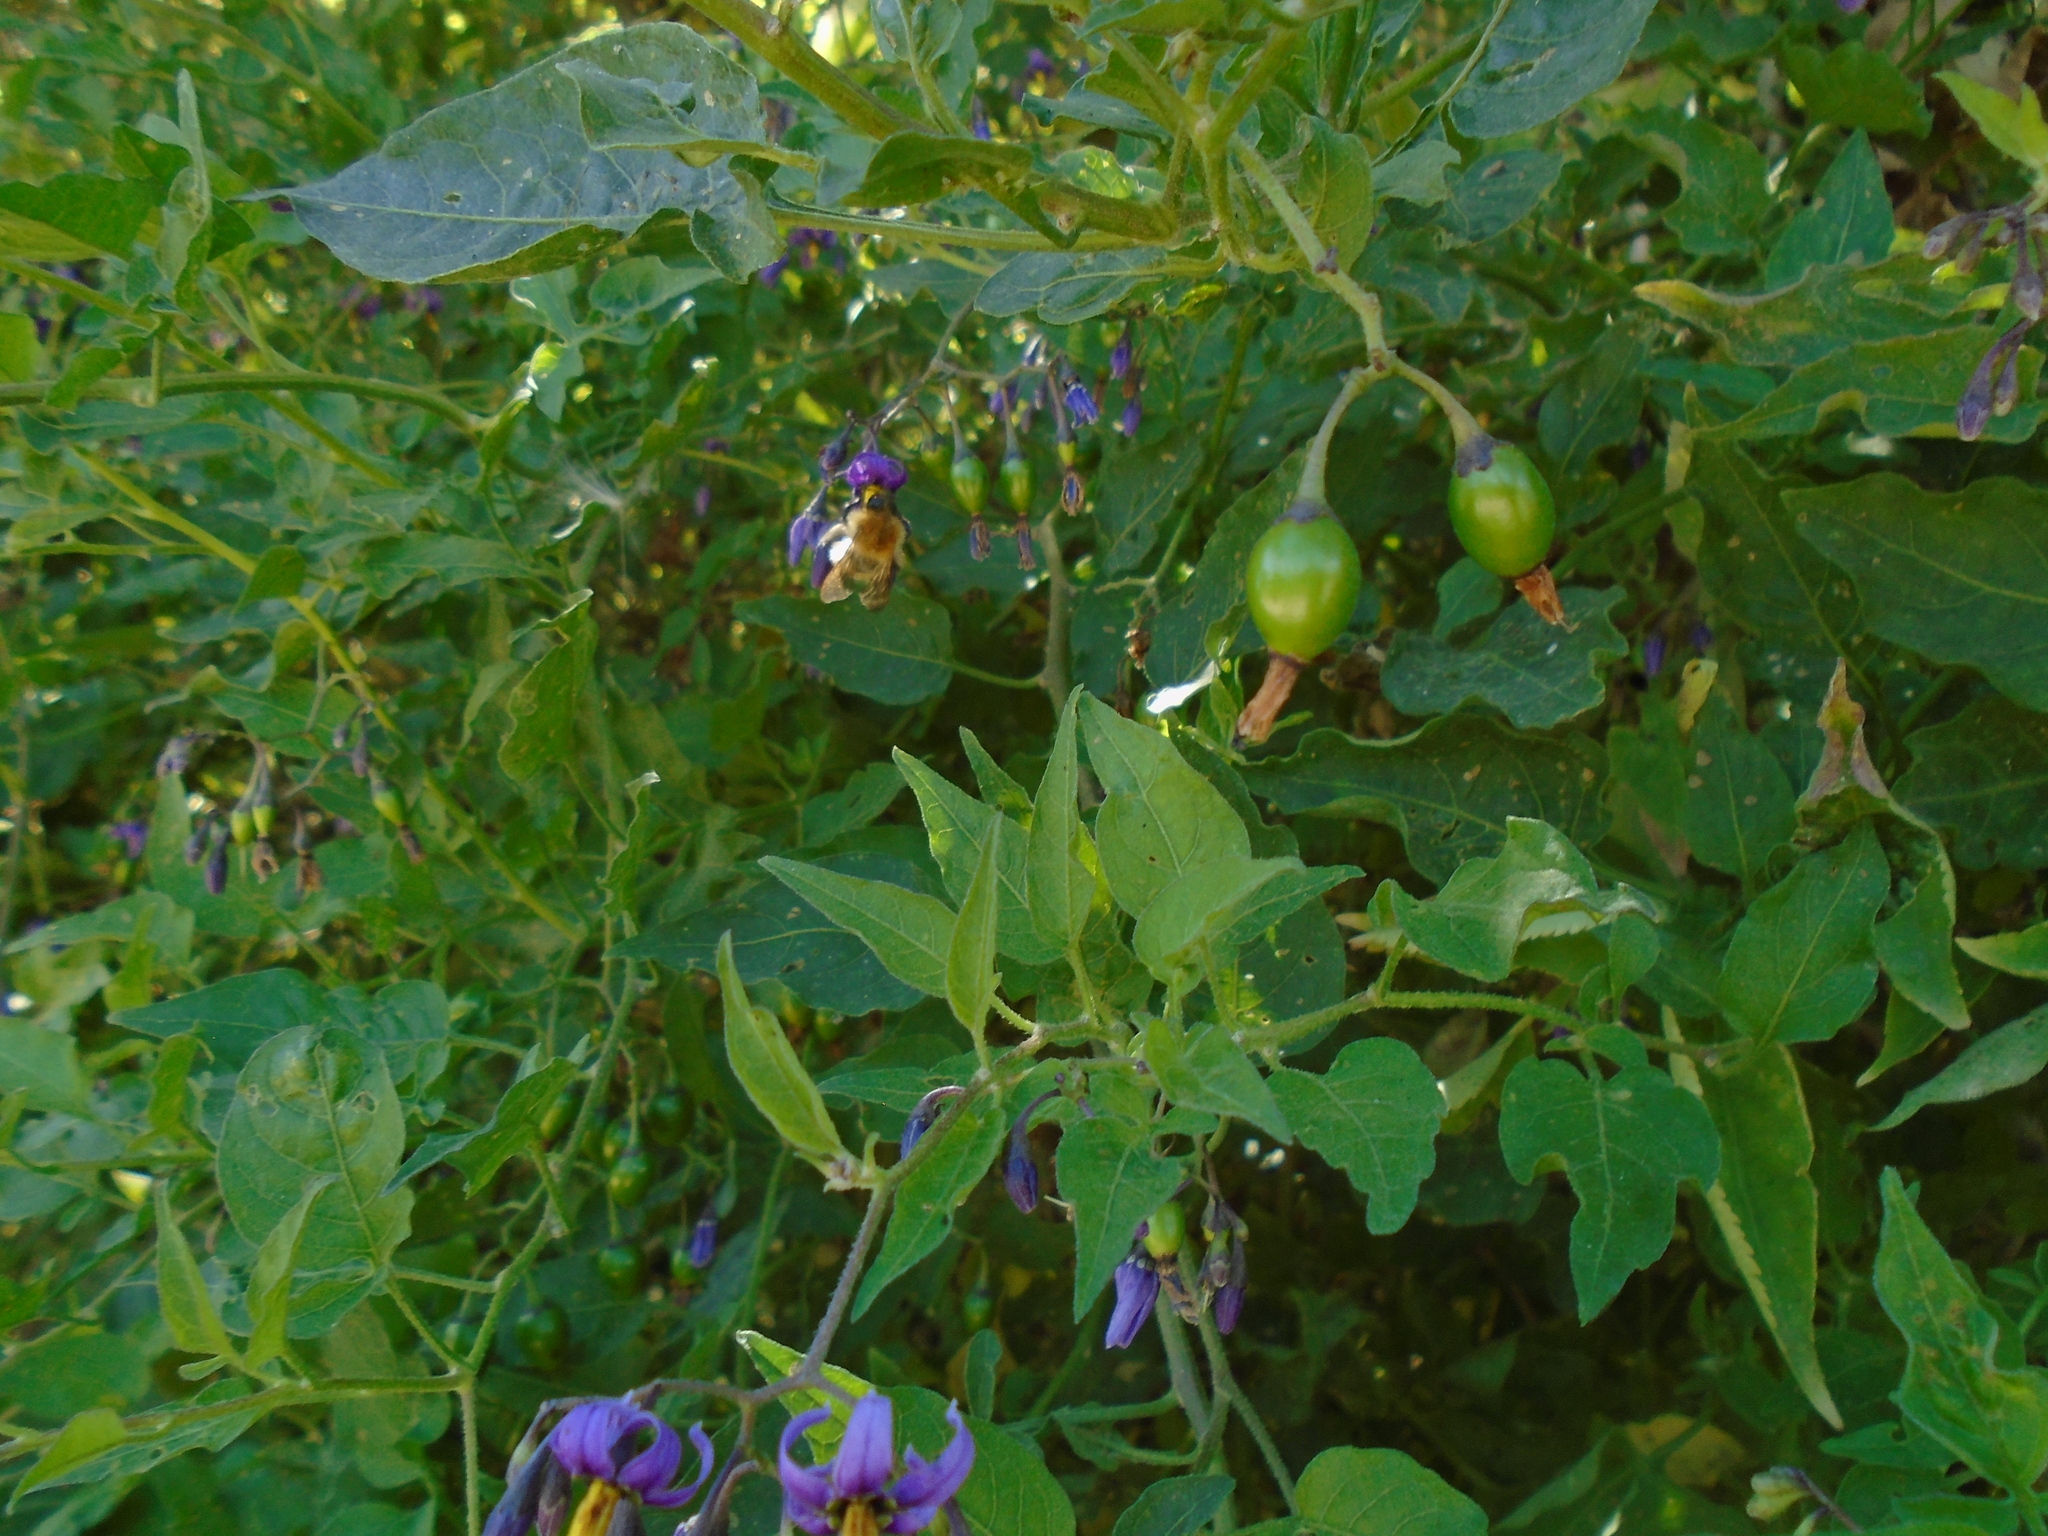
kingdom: Plantae
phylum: Tracheophyta
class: Magnoliopsida
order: Solanales
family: Solanaceae
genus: Solanum
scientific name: Solanum dulcamara
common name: Climbing nightshade
